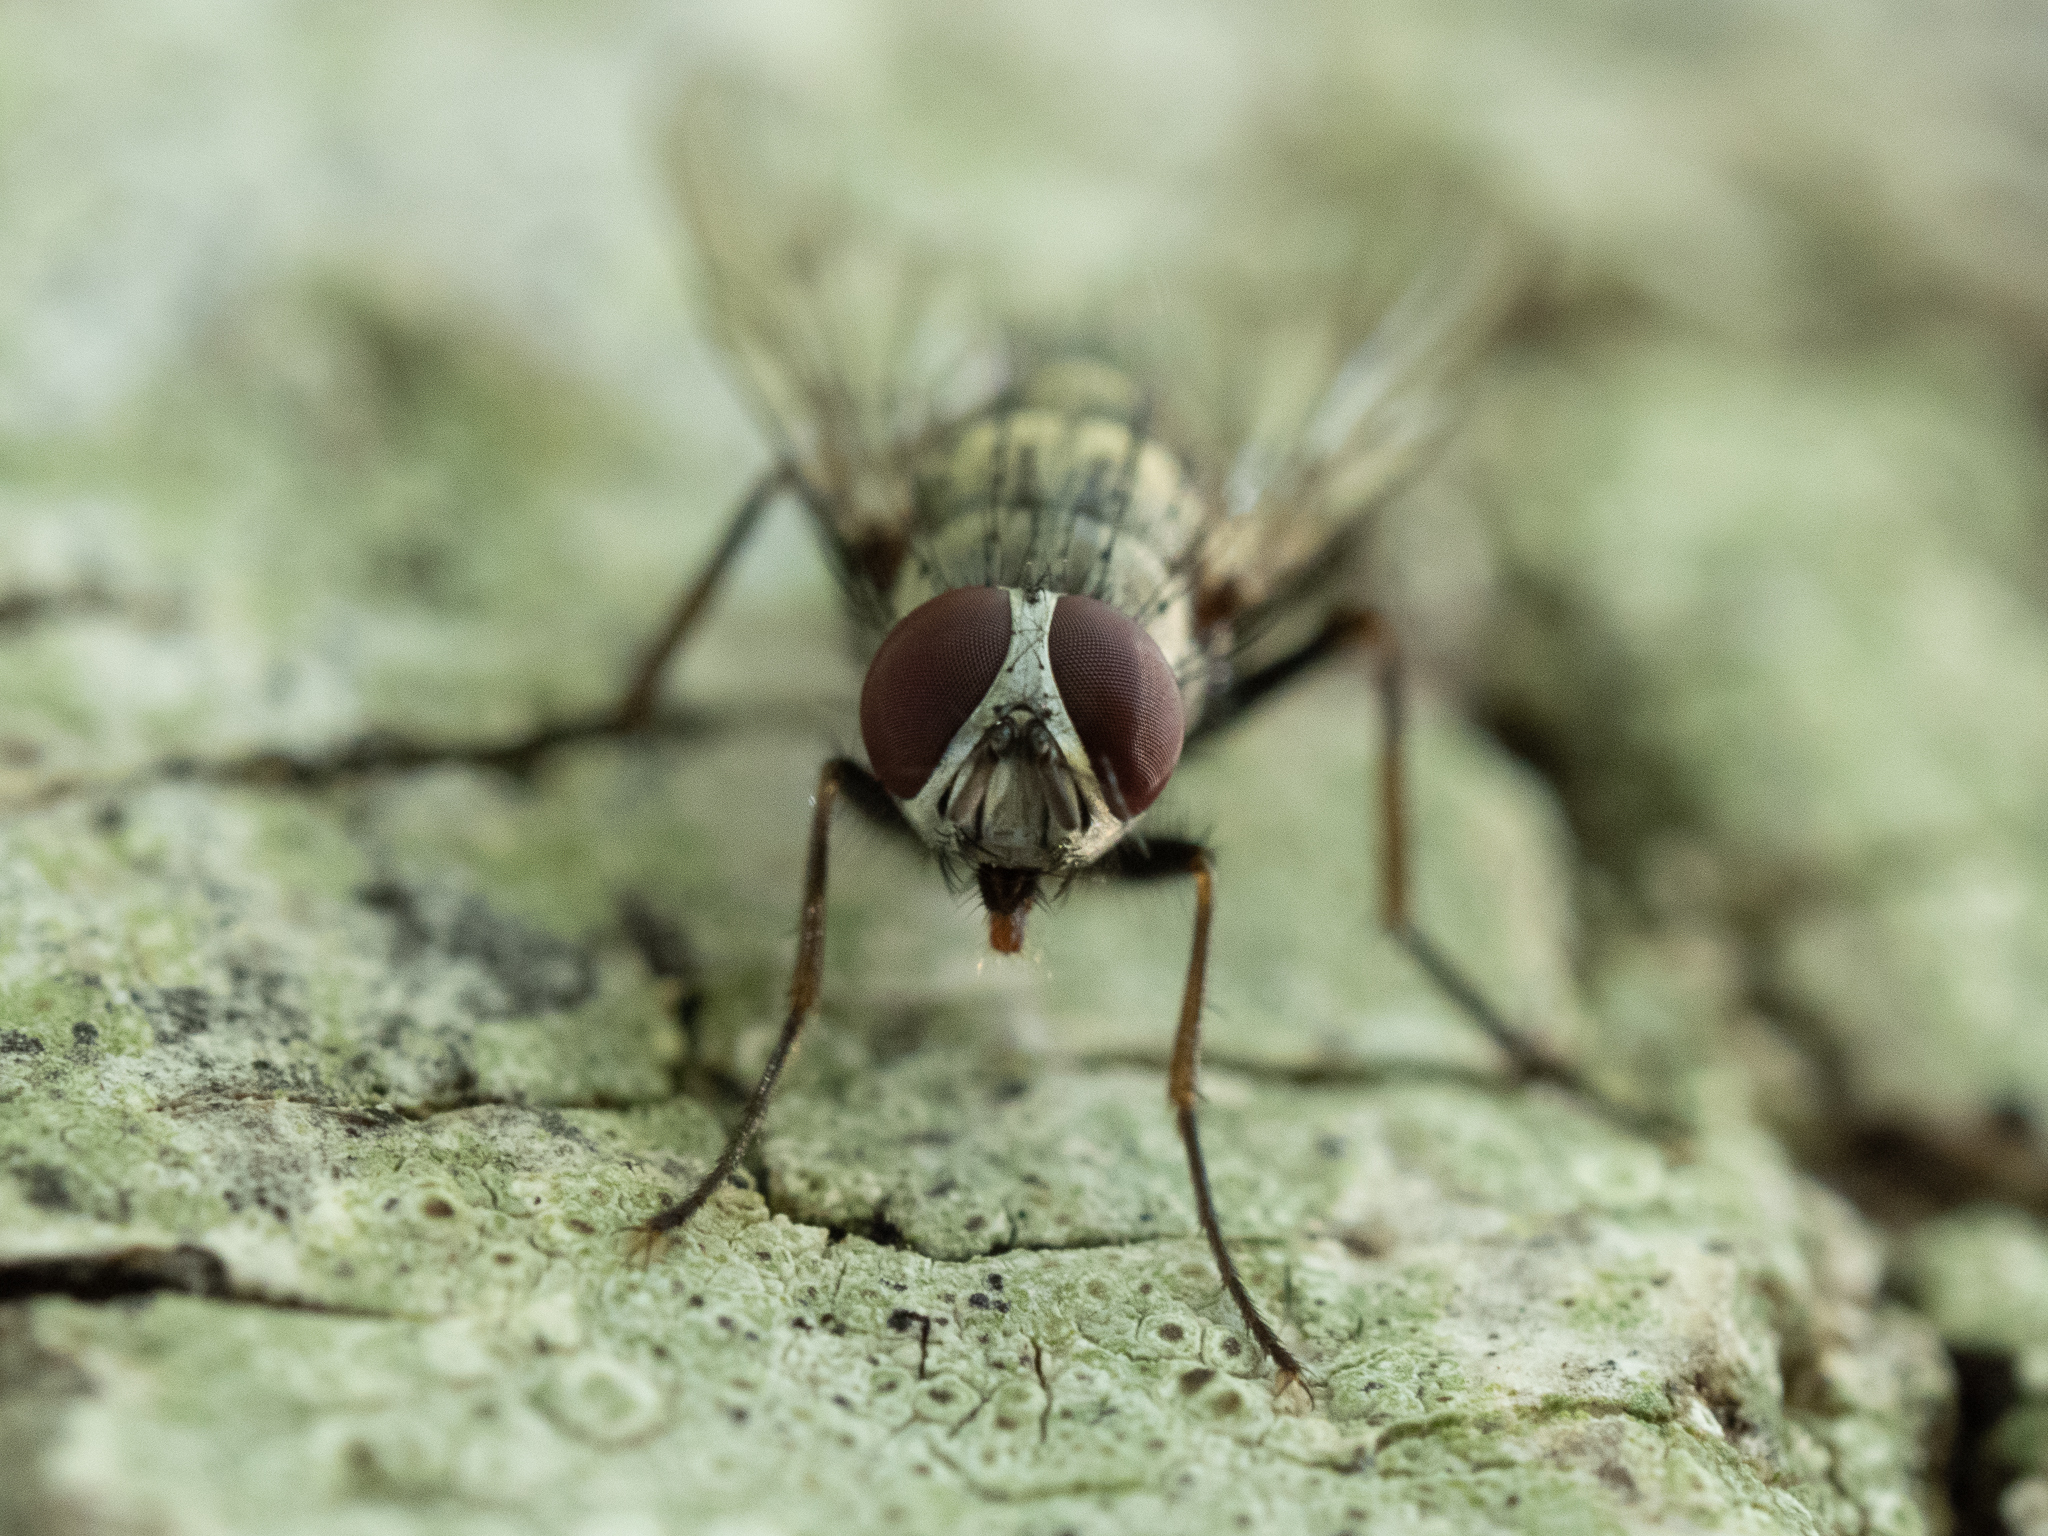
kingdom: Animalia
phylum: Arthropoda
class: Insecta
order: Diptera
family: Muscidae
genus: Helina
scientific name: Helina clara
